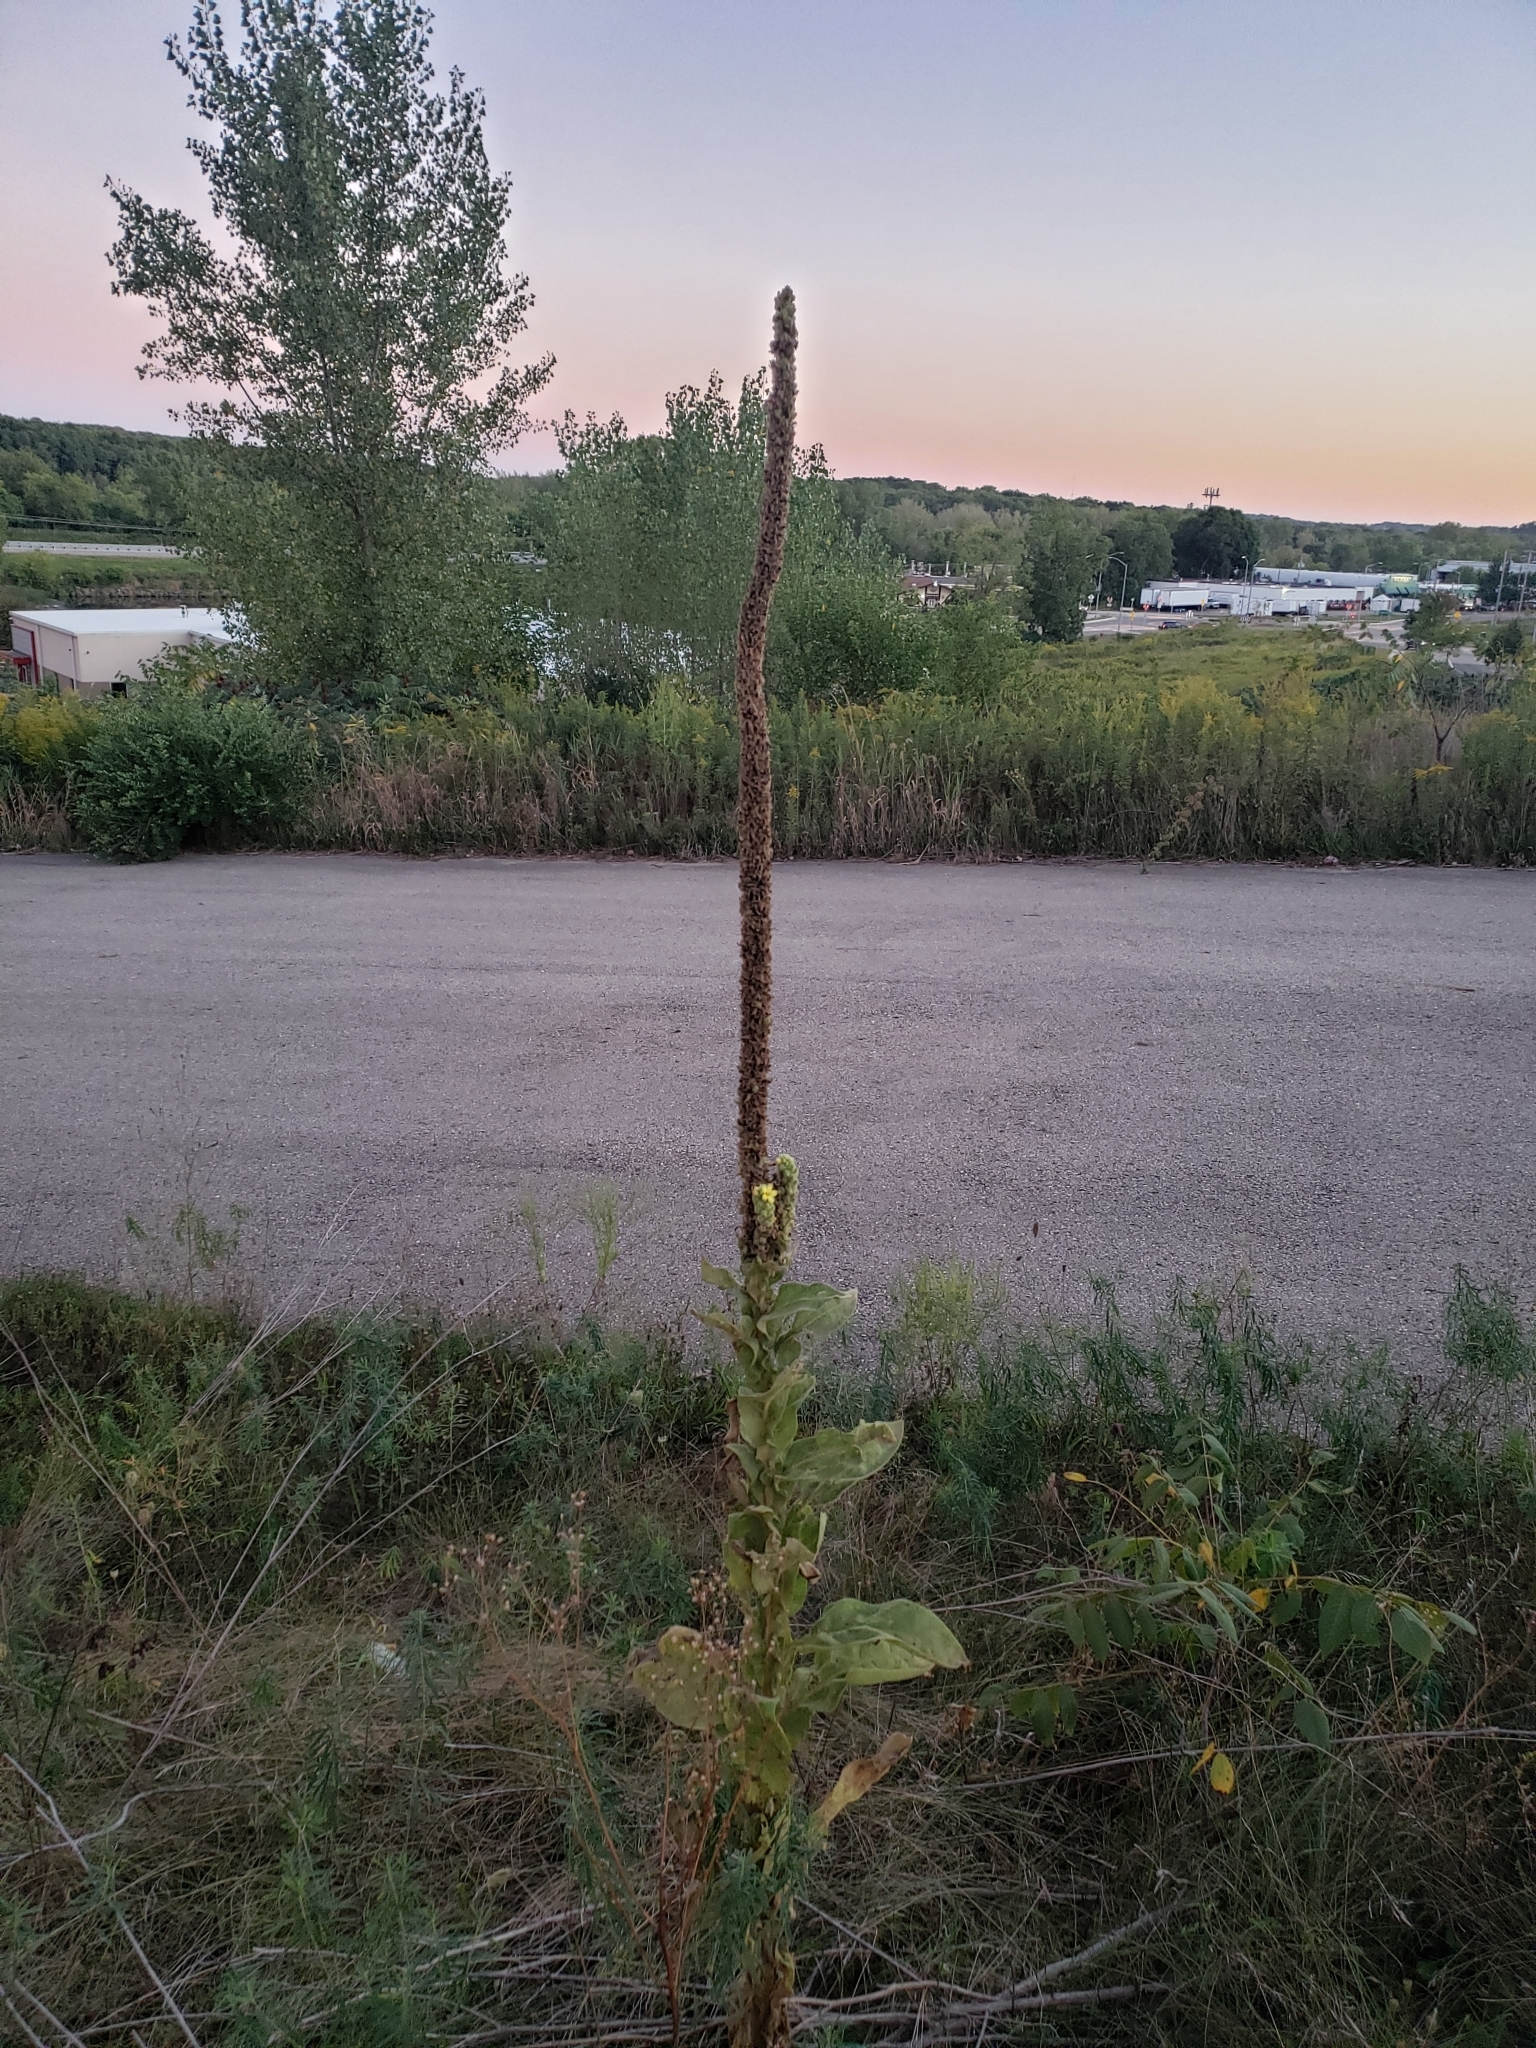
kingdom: Plantae
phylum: Tracheophyta
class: Magnoliopsida
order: Lamiales
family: Scrophulariaceae
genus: Verbascum
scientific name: Verbascum thapsus
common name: Common mullein
